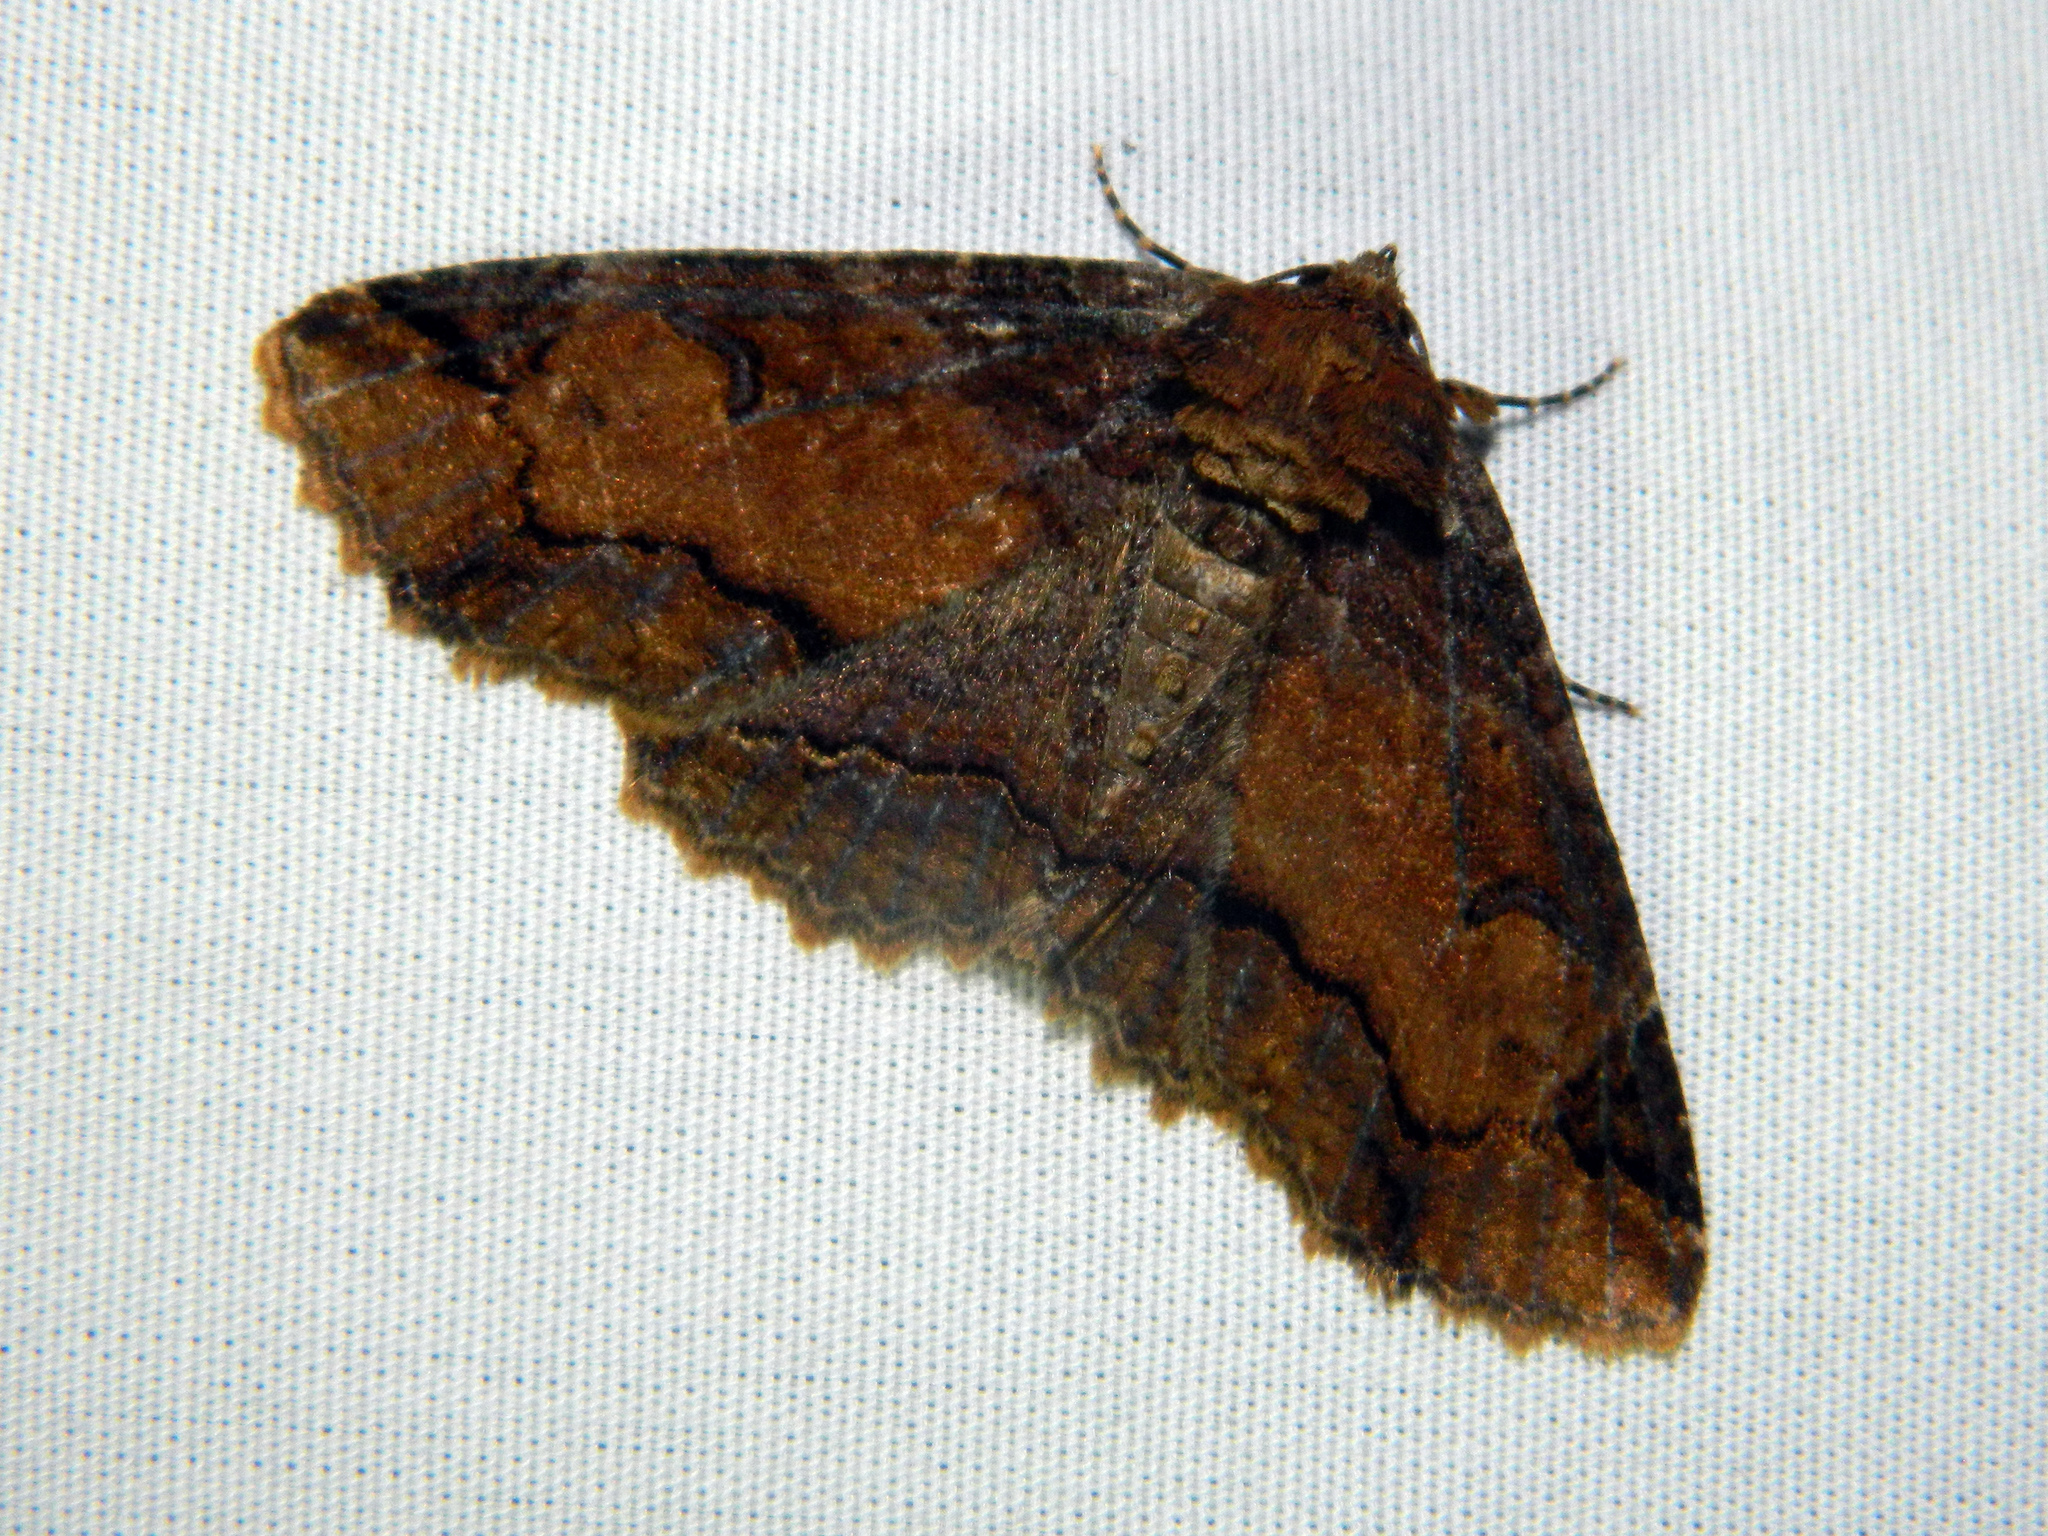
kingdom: Animalia
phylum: Arthropoda
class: Insecta
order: Lepidoptera
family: Erebidae
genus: Zale
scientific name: Zale minerea
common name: Colorful zale moth
